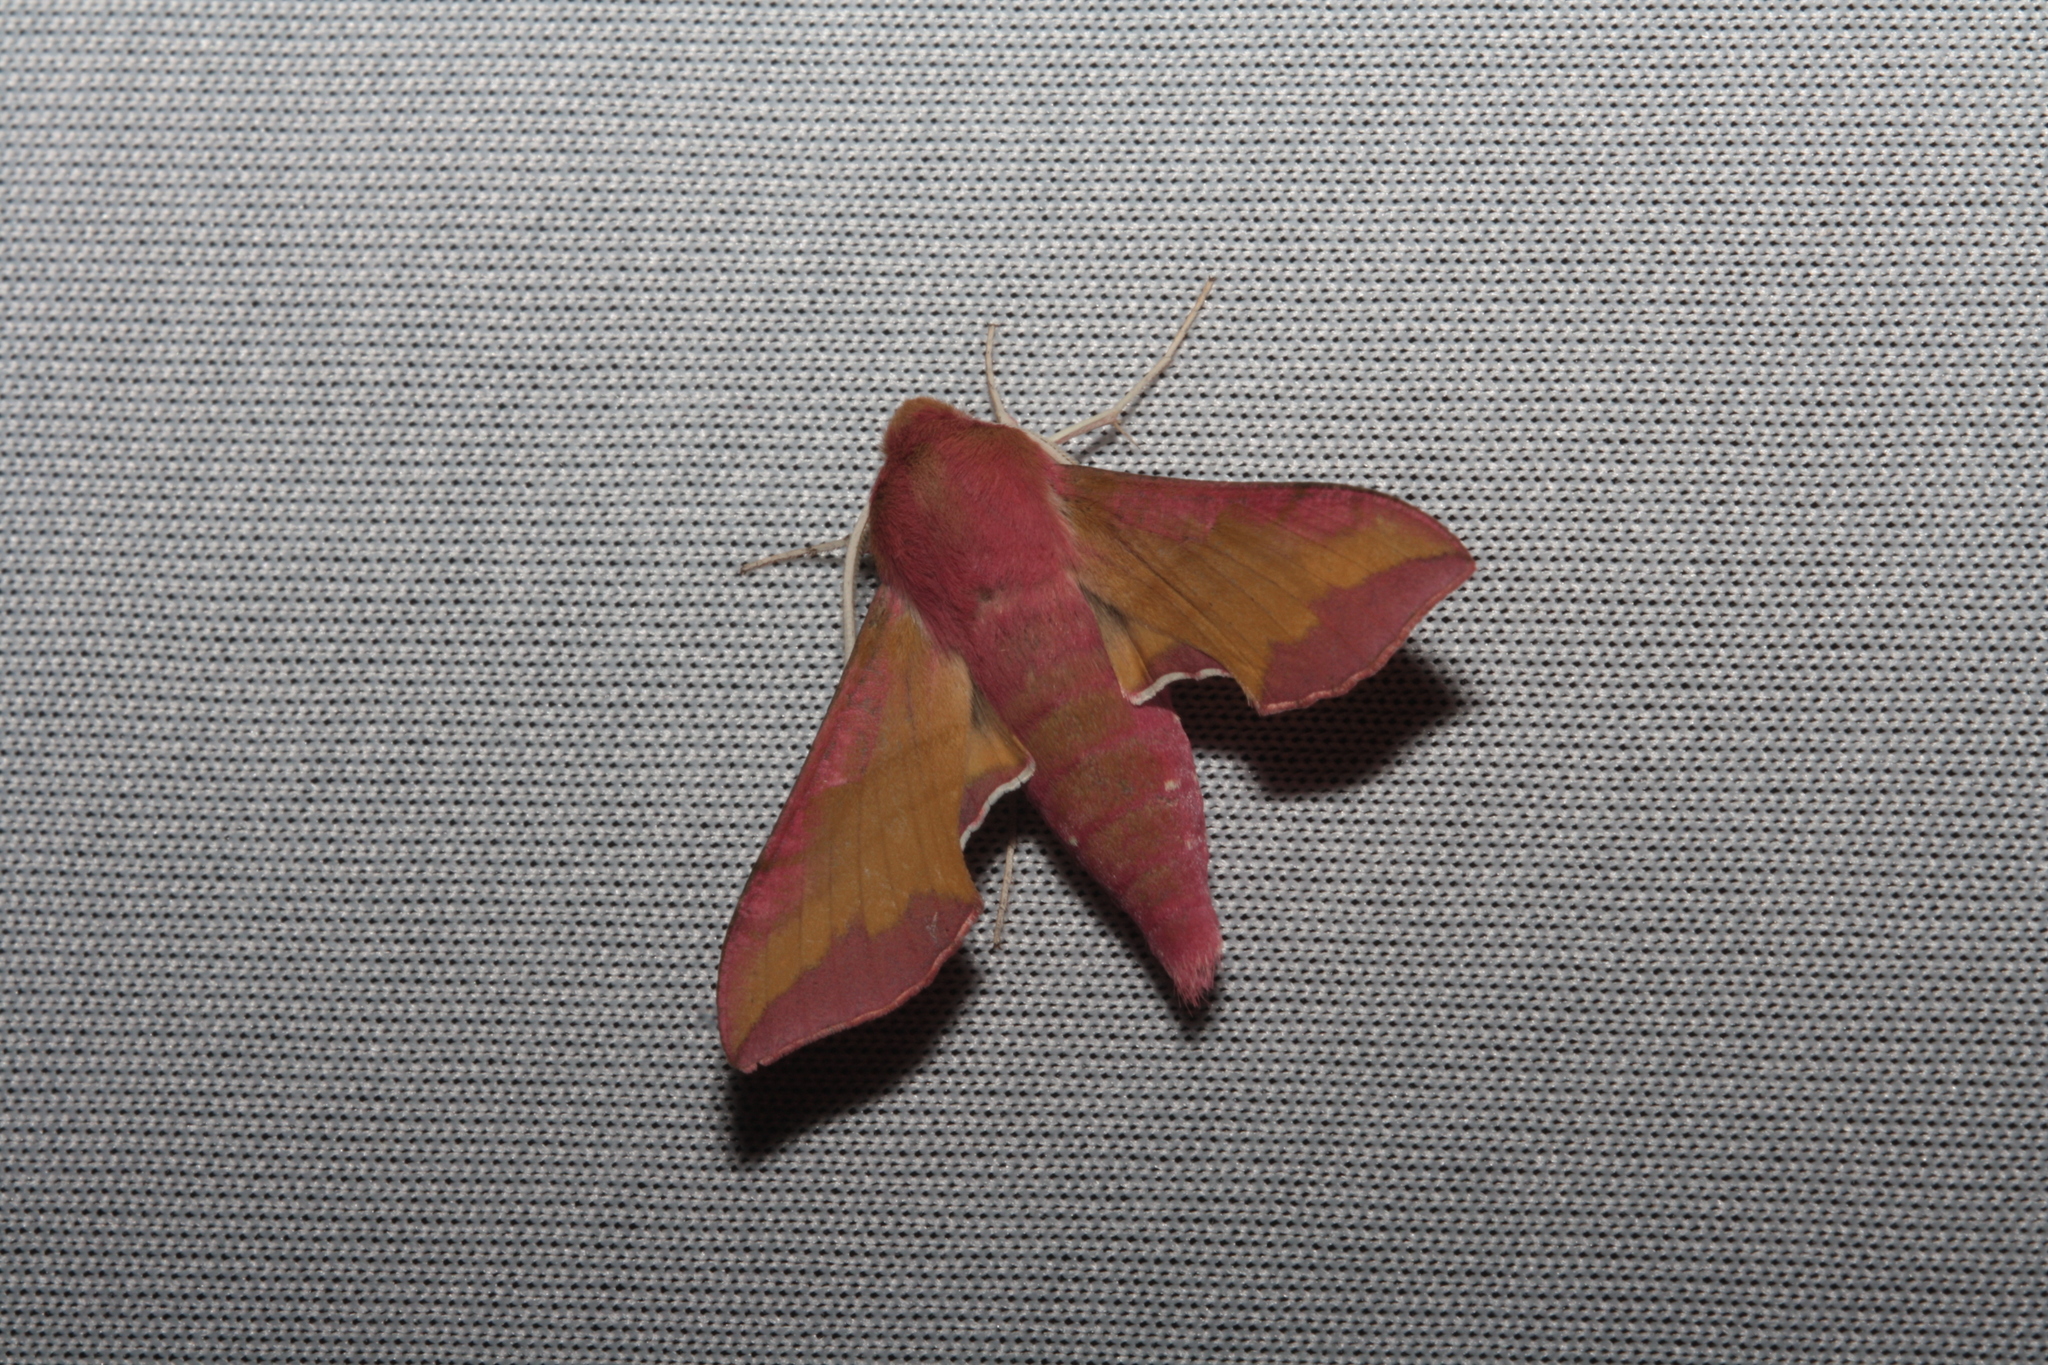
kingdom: Animalia
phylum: Arthropoda
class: Insecta
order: Lepidoptera
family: Sphingidae
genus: Deilephila
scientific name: Deilephila porcellus
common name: Small elephant hawk-moth
